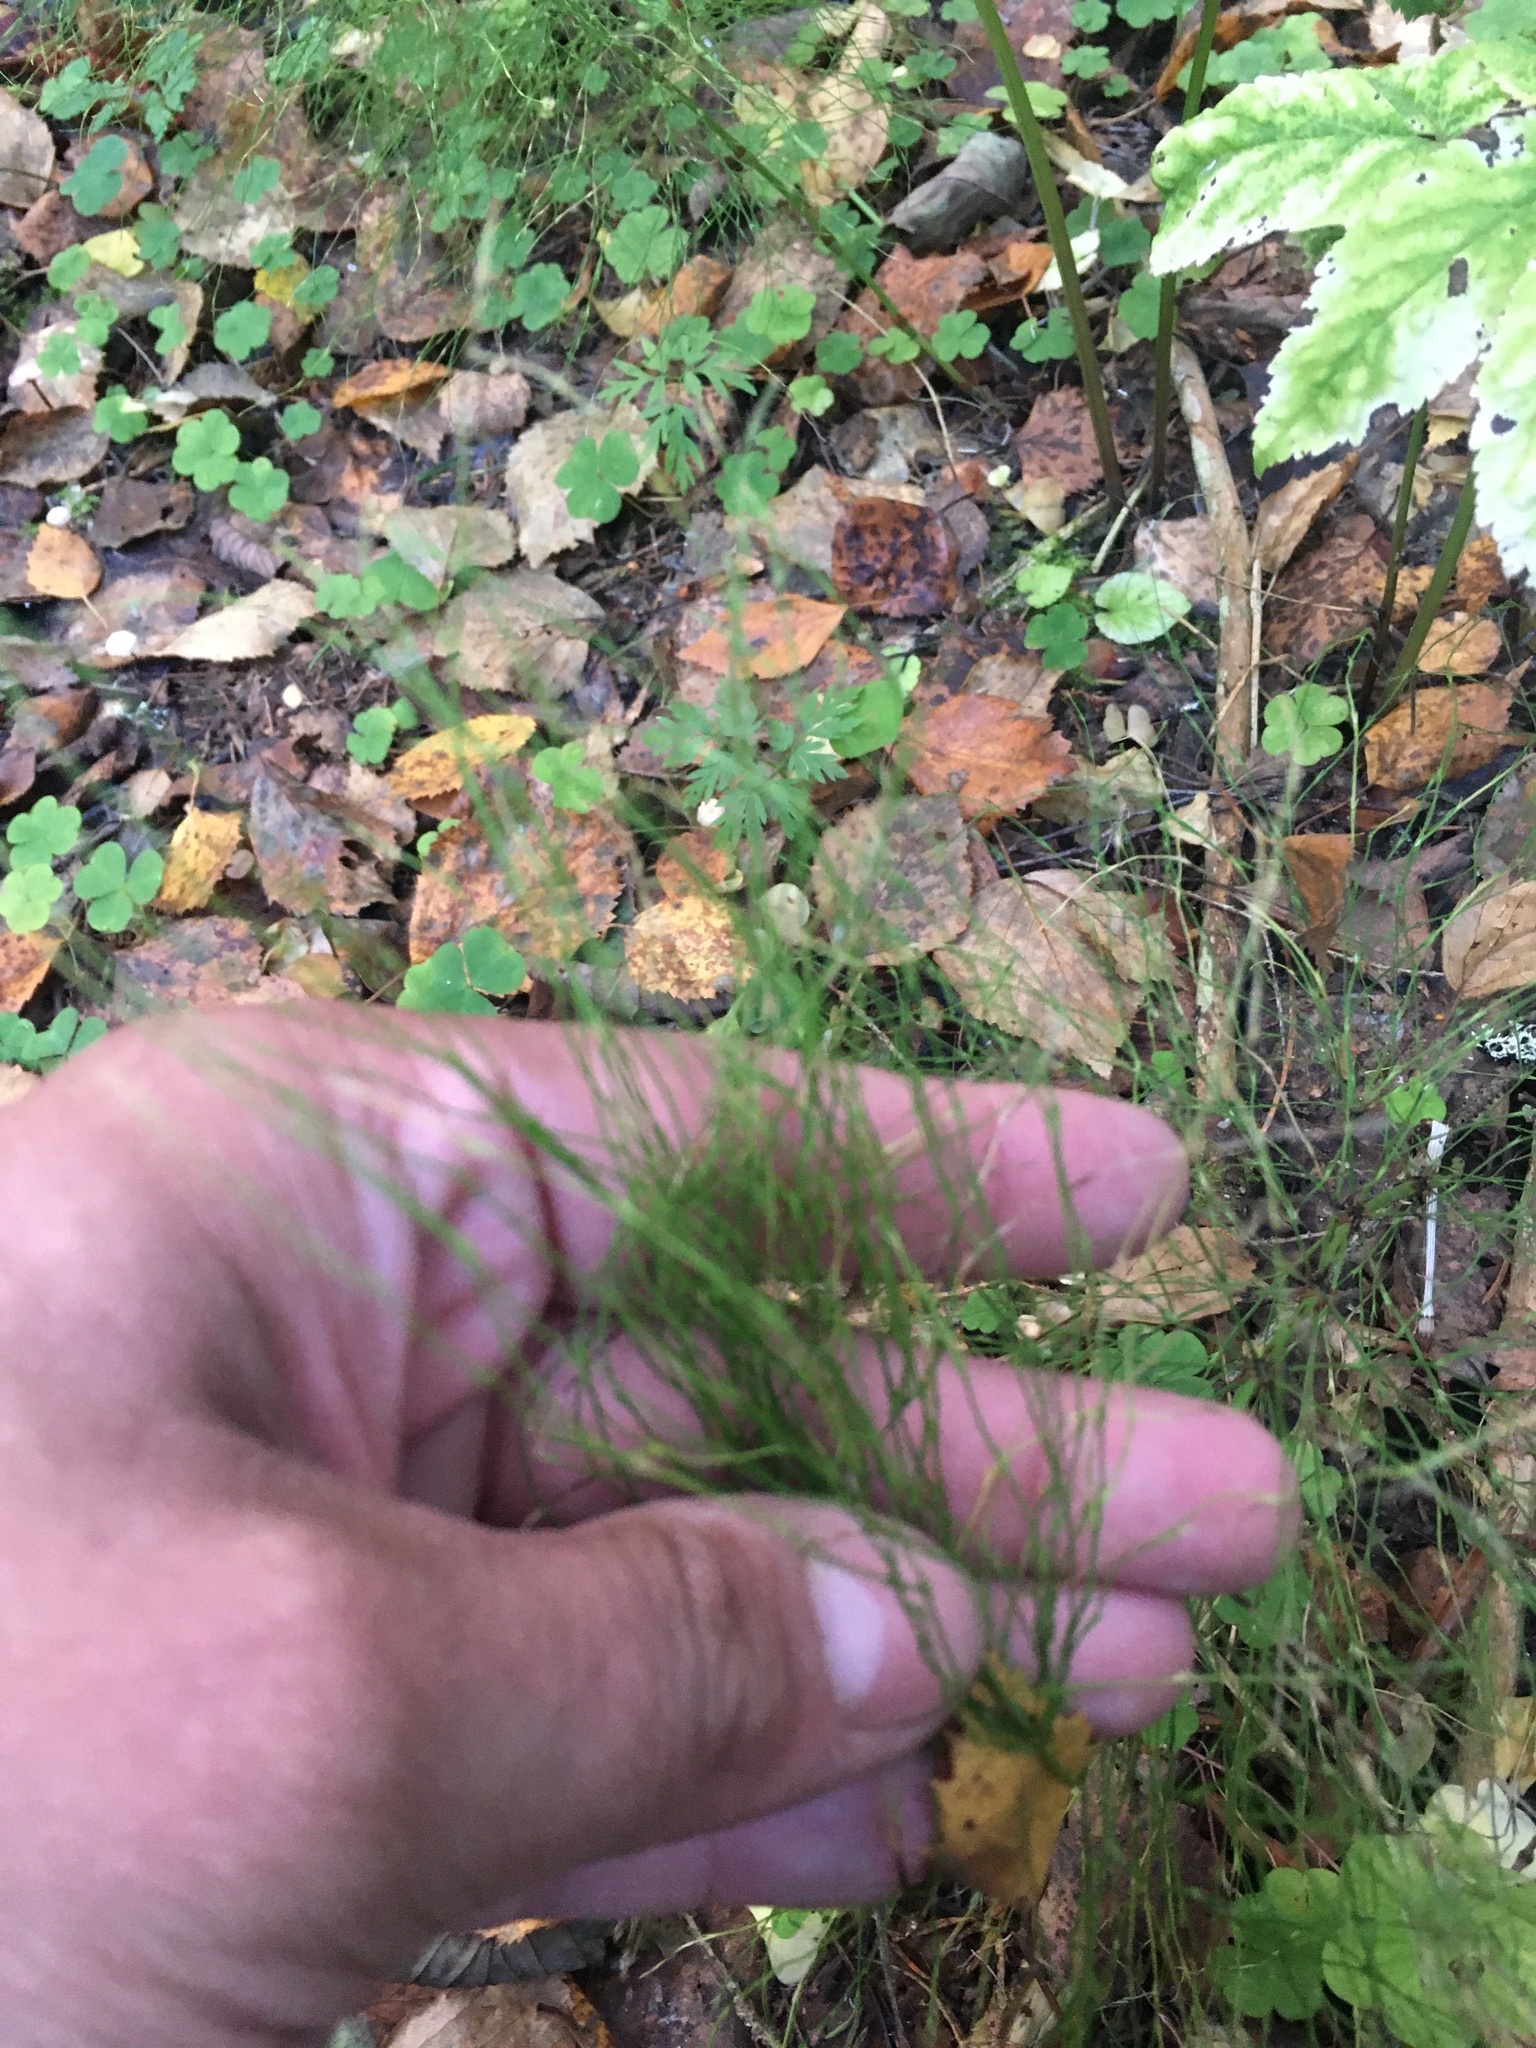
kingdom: Plantae
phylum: Tracheophyta
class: Polypodiopsida
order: Equisetales
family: Equisetaceae
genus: Equisetum
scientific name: Equisetum sylvaticum
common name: Wood horsetail
